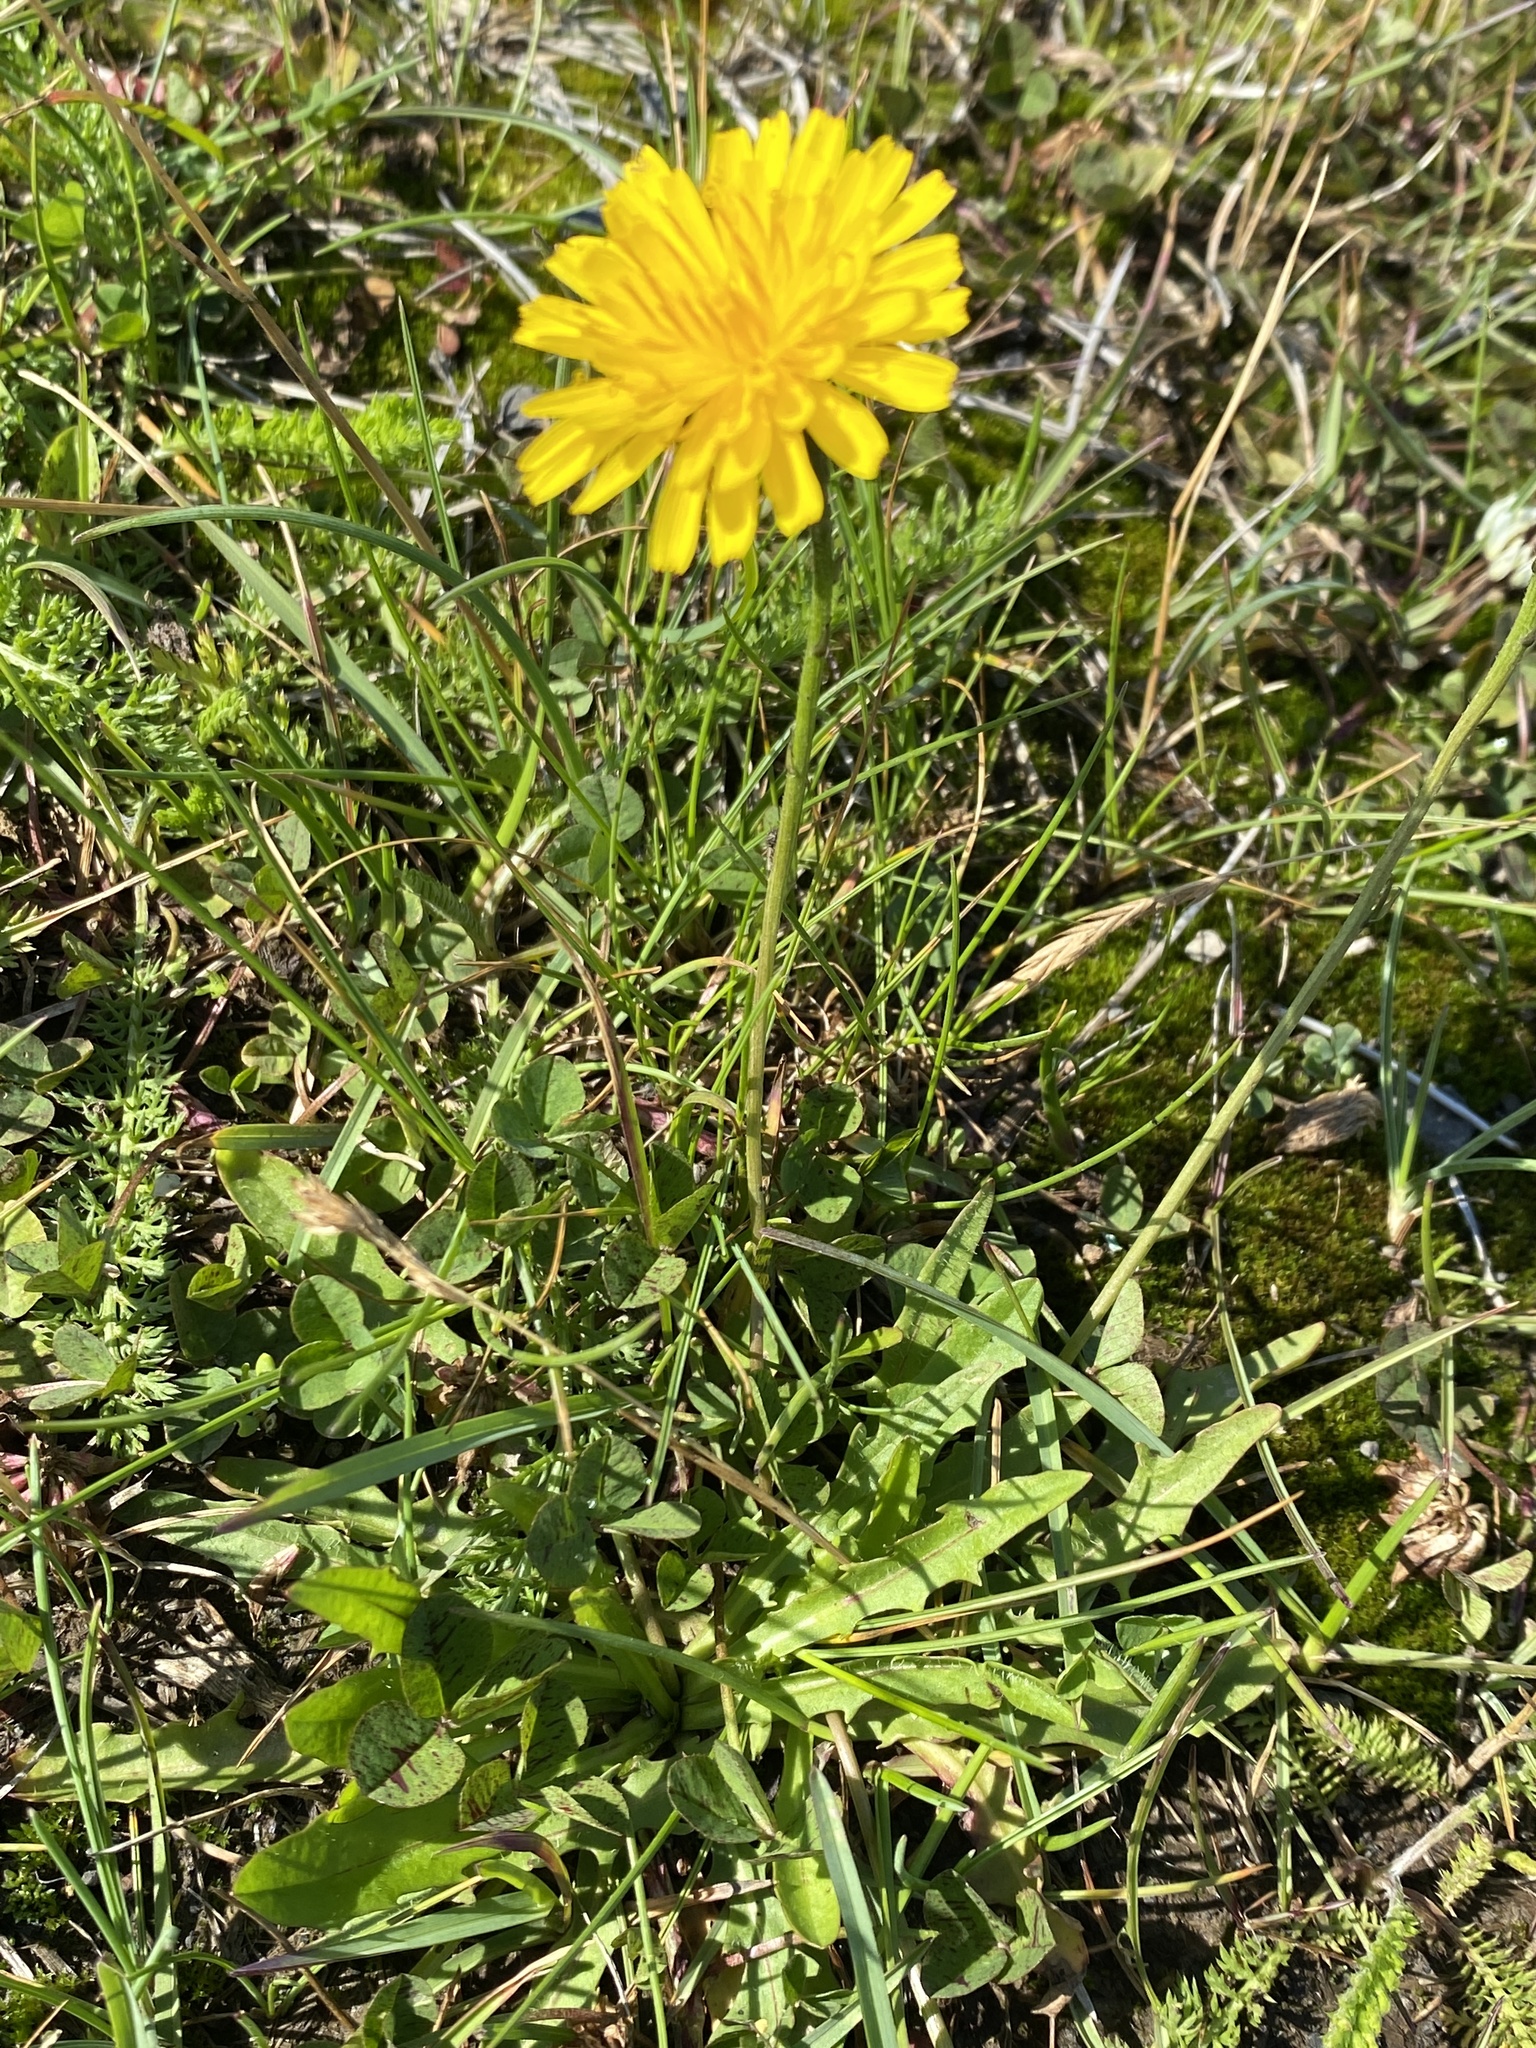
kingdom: Plantae
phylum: Tracheophyta
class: Magnoliopsida
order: Asterales
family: Asteraceae
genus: Scorzoneroides
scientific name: Scorzoneroides autumnalis
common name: Autumn hawkbit
